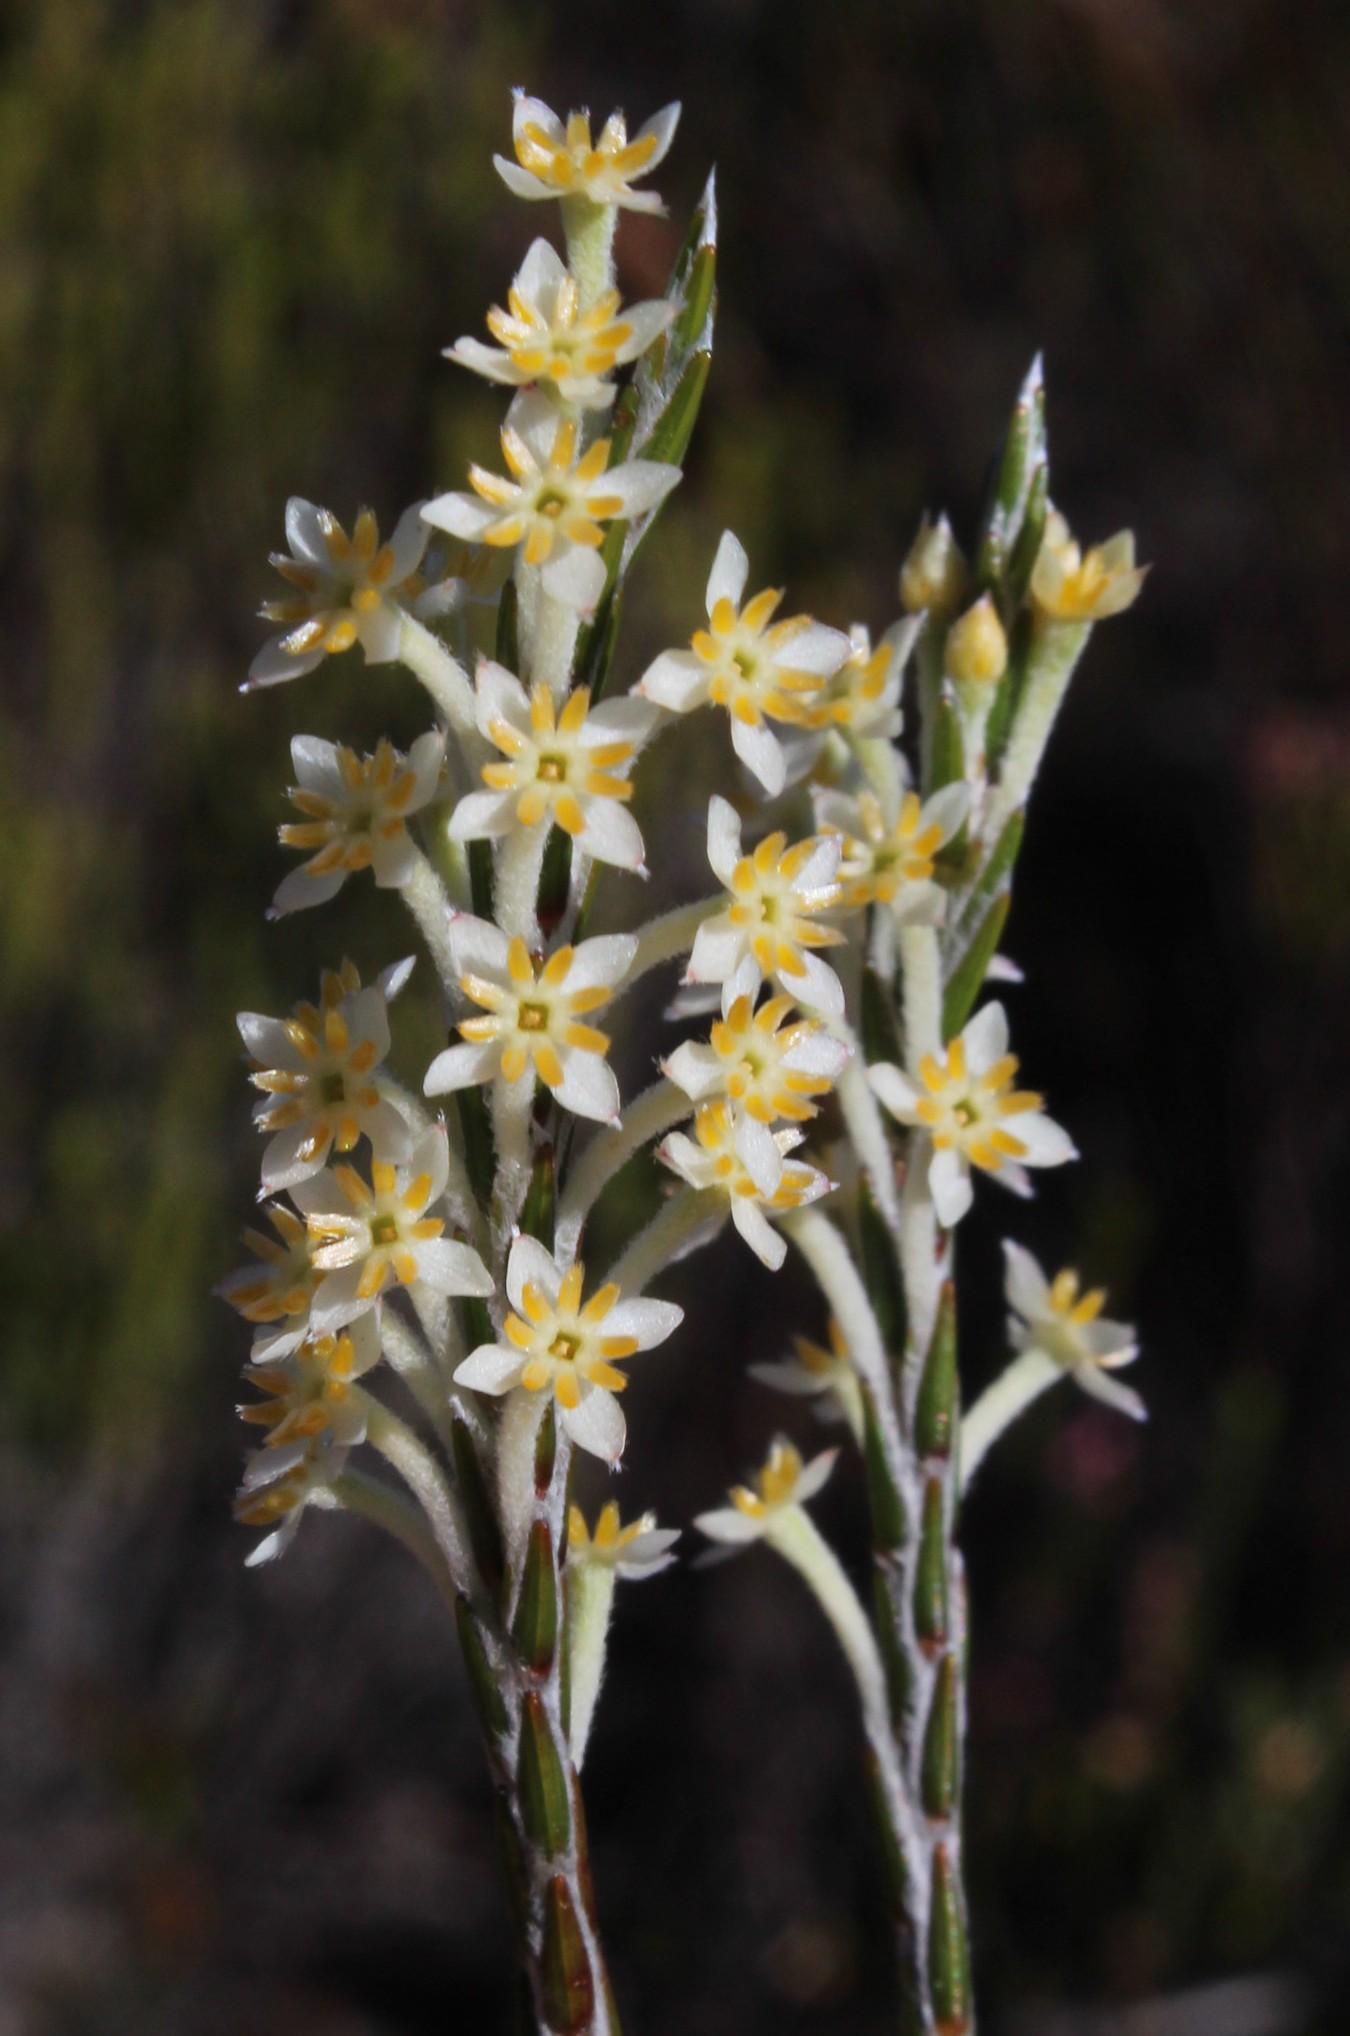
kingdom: Plantae
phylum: Tracheophyta
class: Magnoliopsida
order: Malvales
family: Thymelaeaceae
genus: Struthiola
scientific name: Struthiola ciliata
